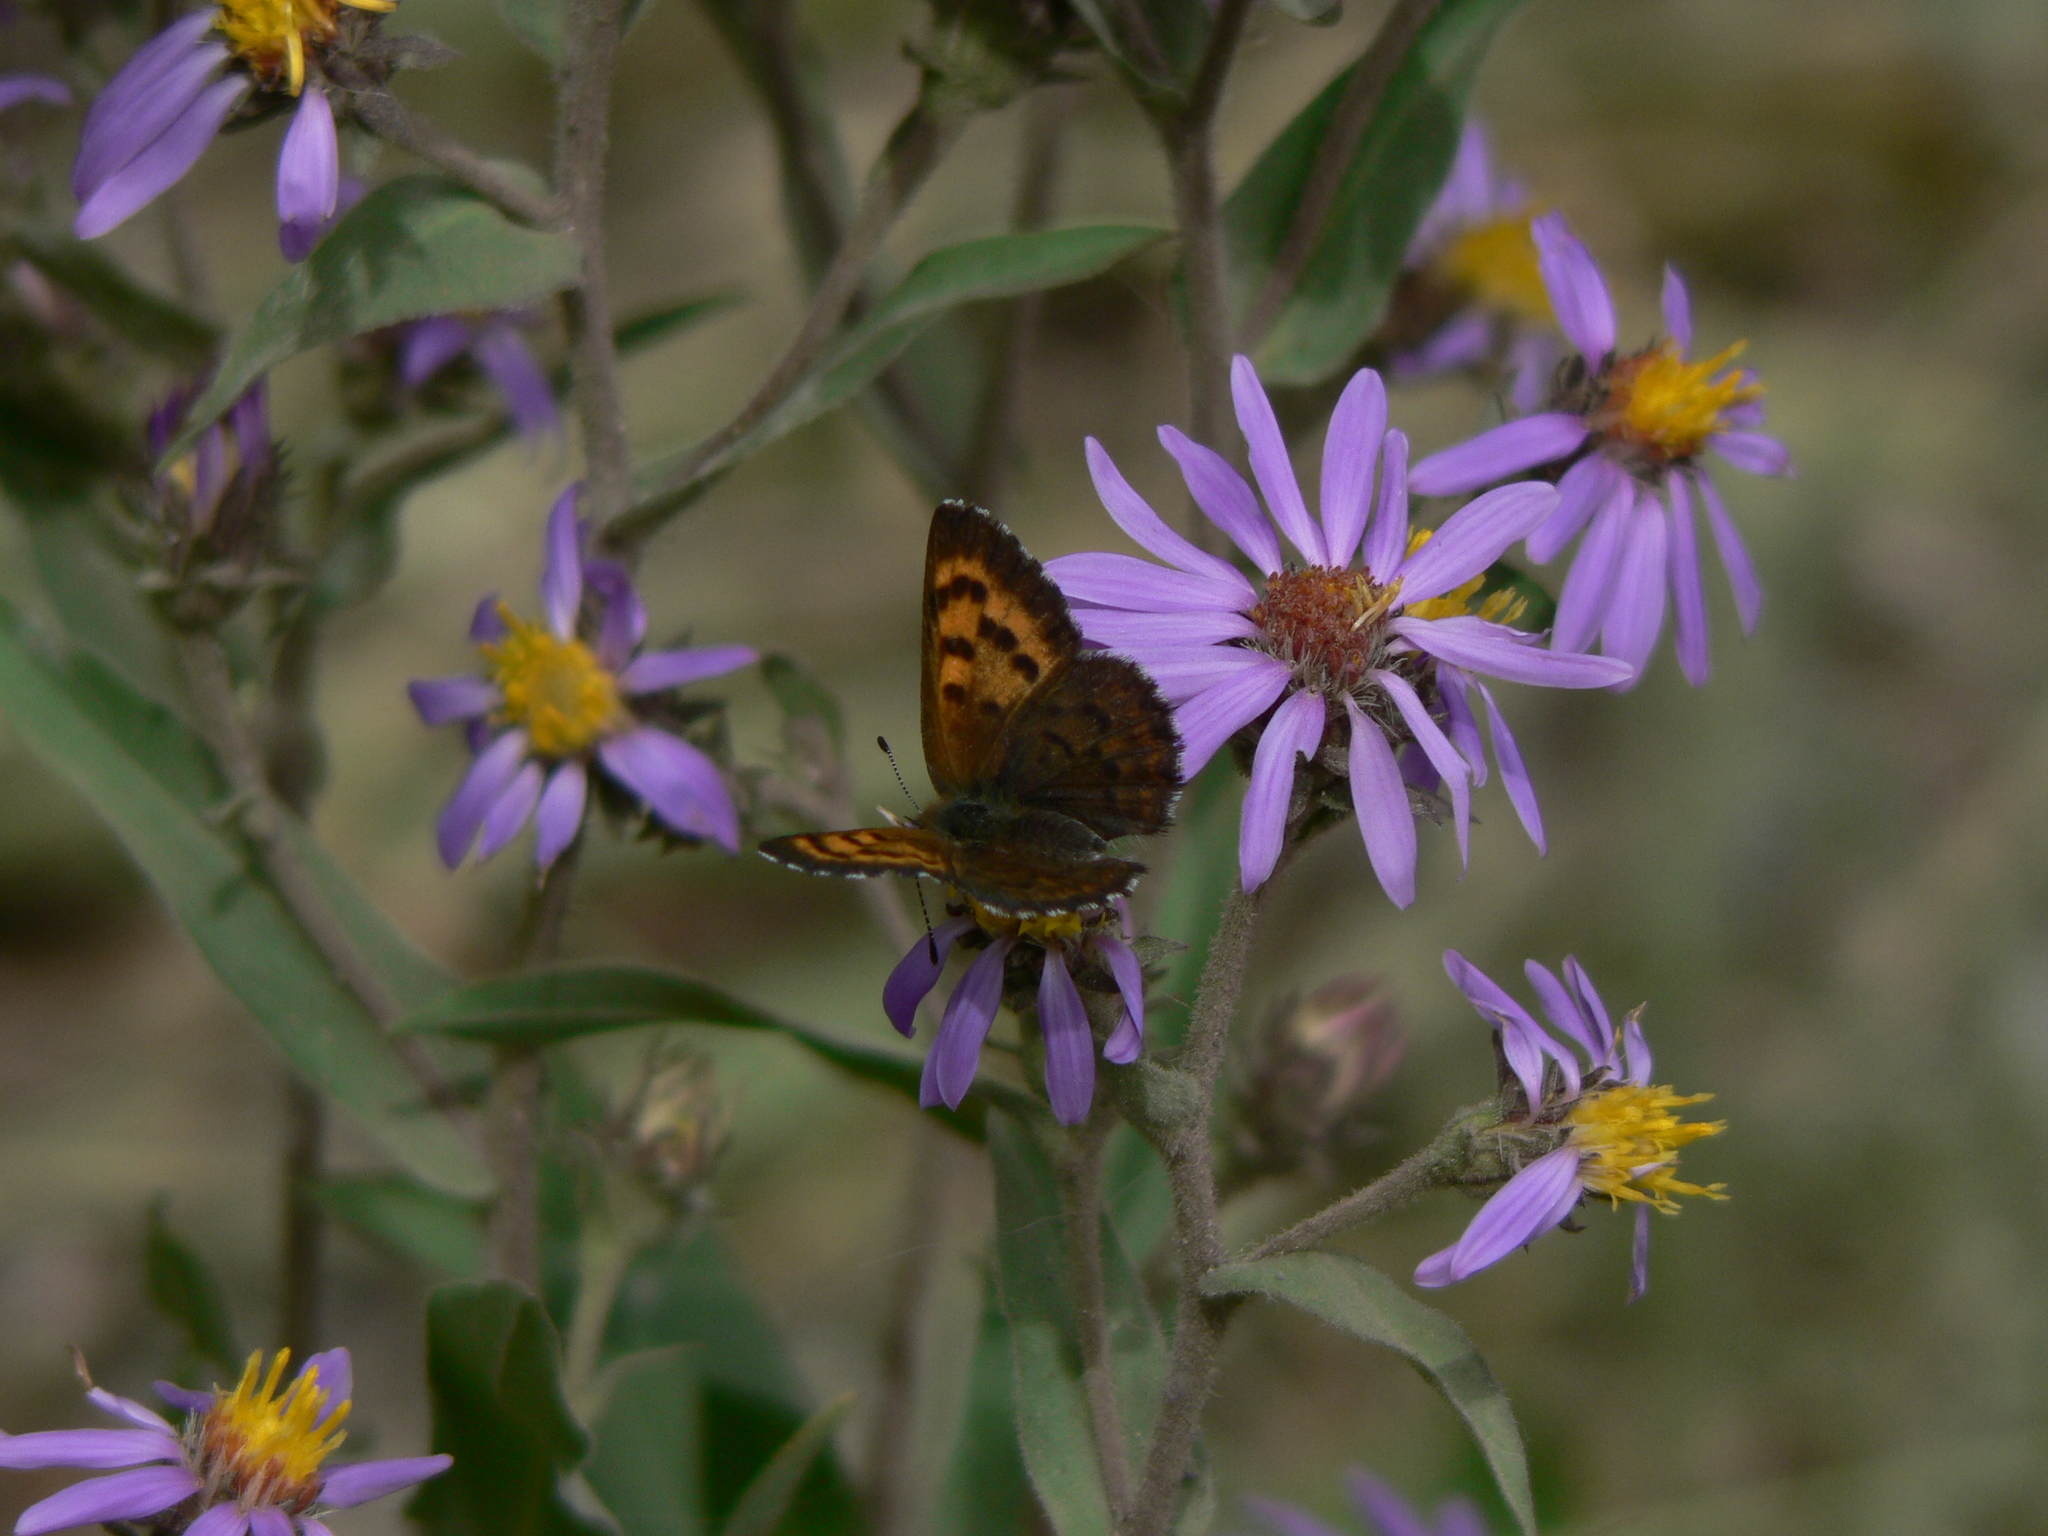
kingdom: Animalia
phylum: Arthropoda
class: Insecta
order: Lepidoptera
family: Lycaenidae
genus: Tharsalea
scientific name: Tharsalea mariposa
